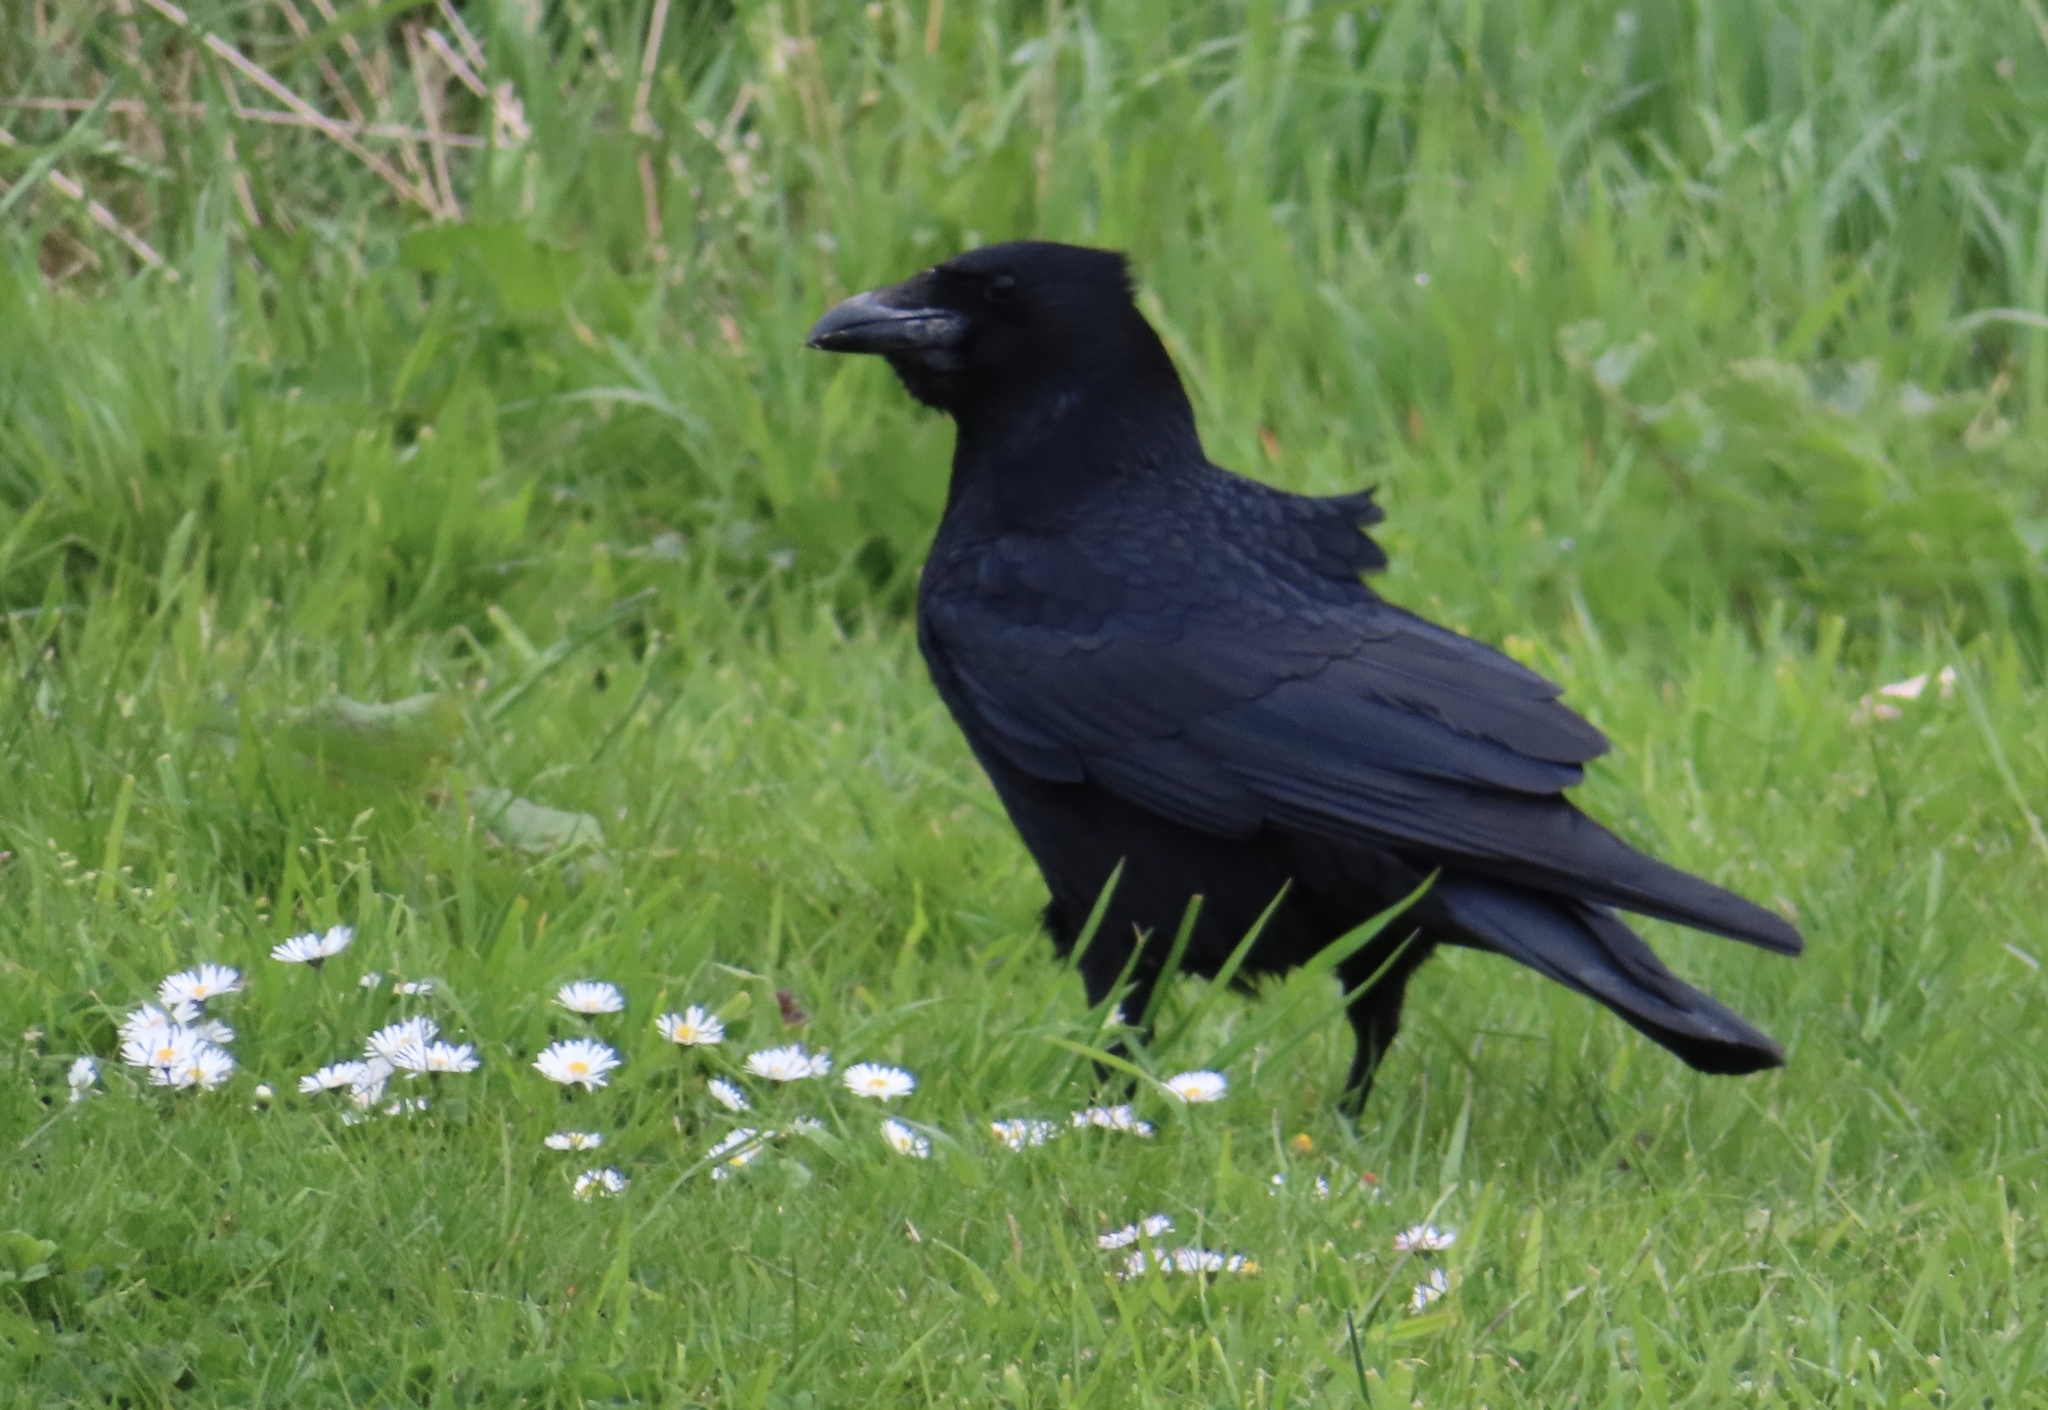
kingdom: Animalia
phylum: Chordata
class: Aves
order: Passeriformes
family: Corvidae
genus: Corvus
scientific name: Corvus corone
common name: Carrion crow
